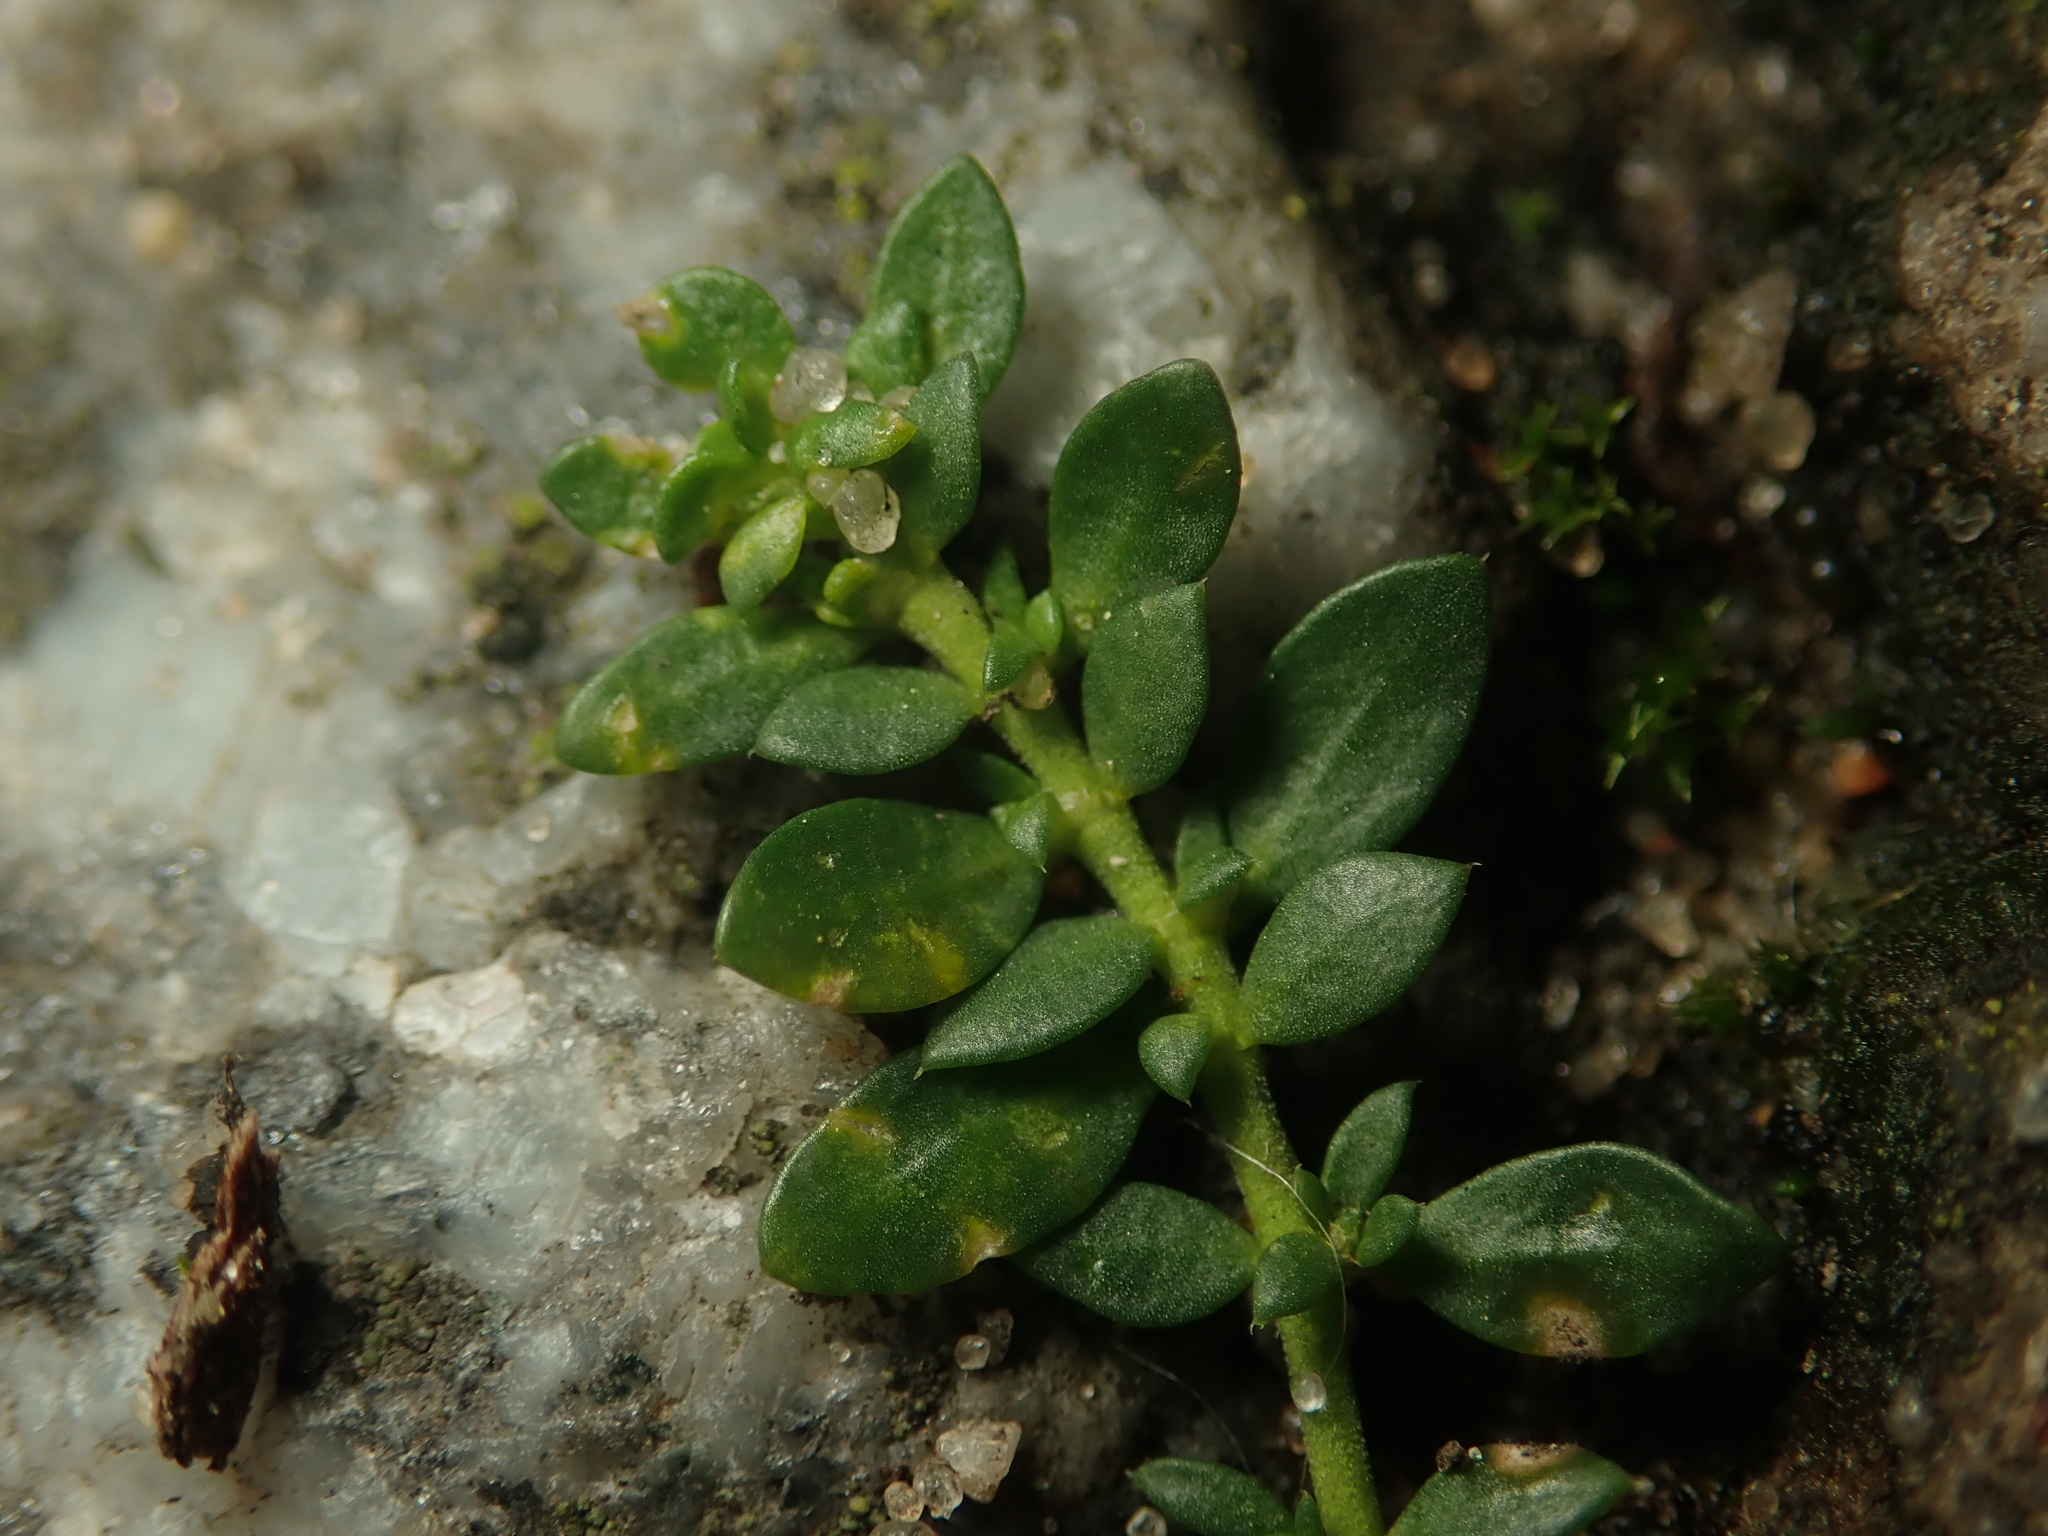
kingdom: Plantae
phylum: Tracheophyta
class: Magnoliopsida
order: Caryophyllales
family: Caryophyllaceae
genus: Herniaria
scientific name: Herniaria glabra
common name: Smooth rupturewort
